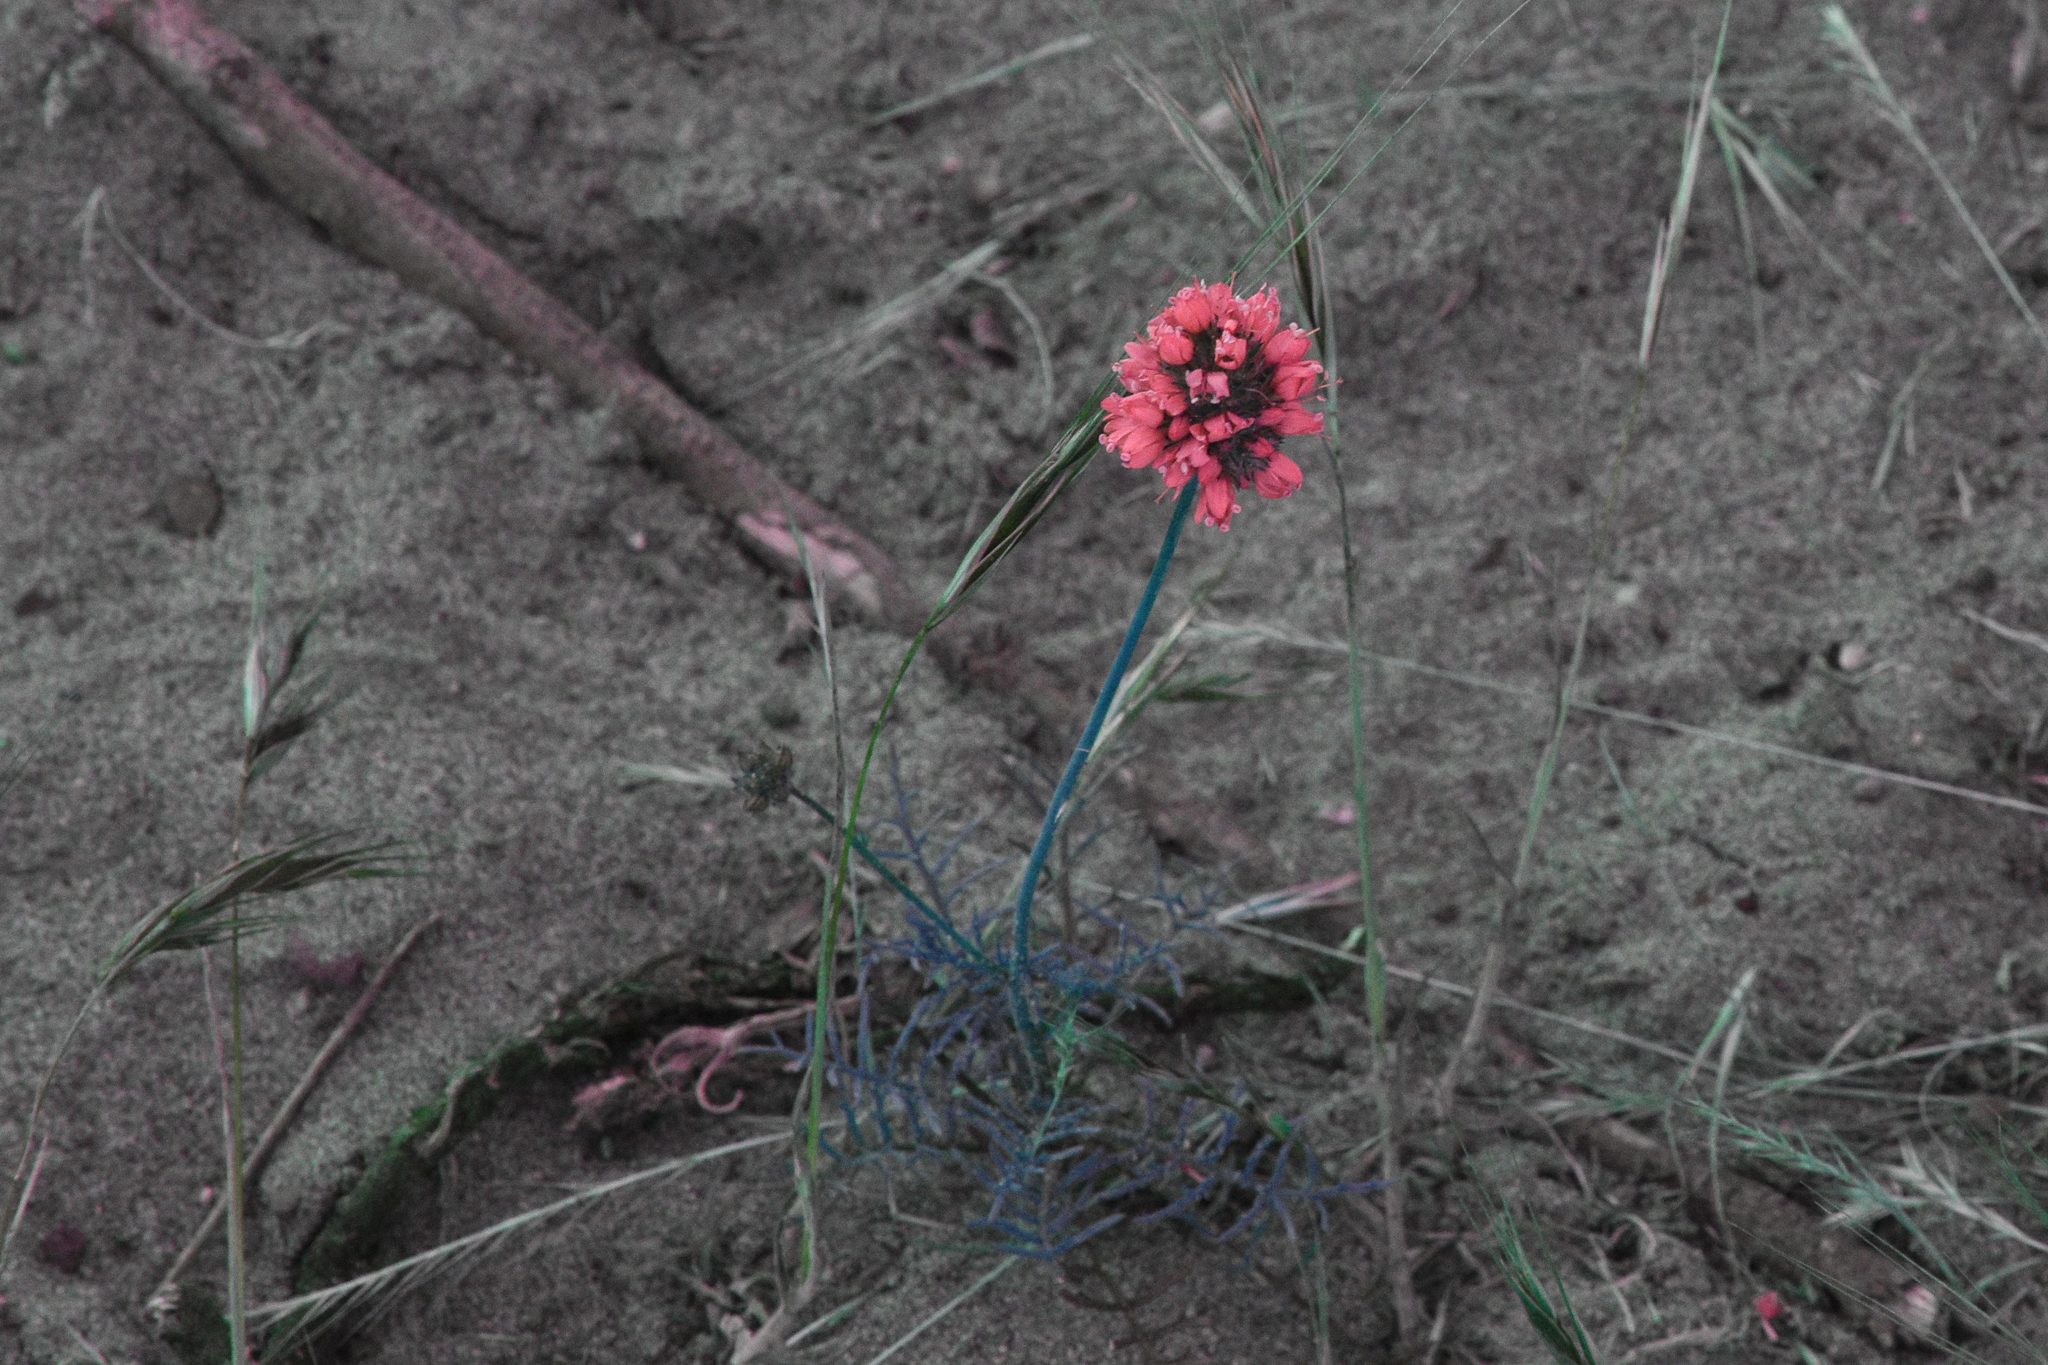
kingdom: Plantae
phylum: Tracheophyta
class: Magnoliopsida
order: Ericales
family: Polemoniaceae
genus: Gilia
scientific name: Gilia capitata
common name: Bluehead gilia
